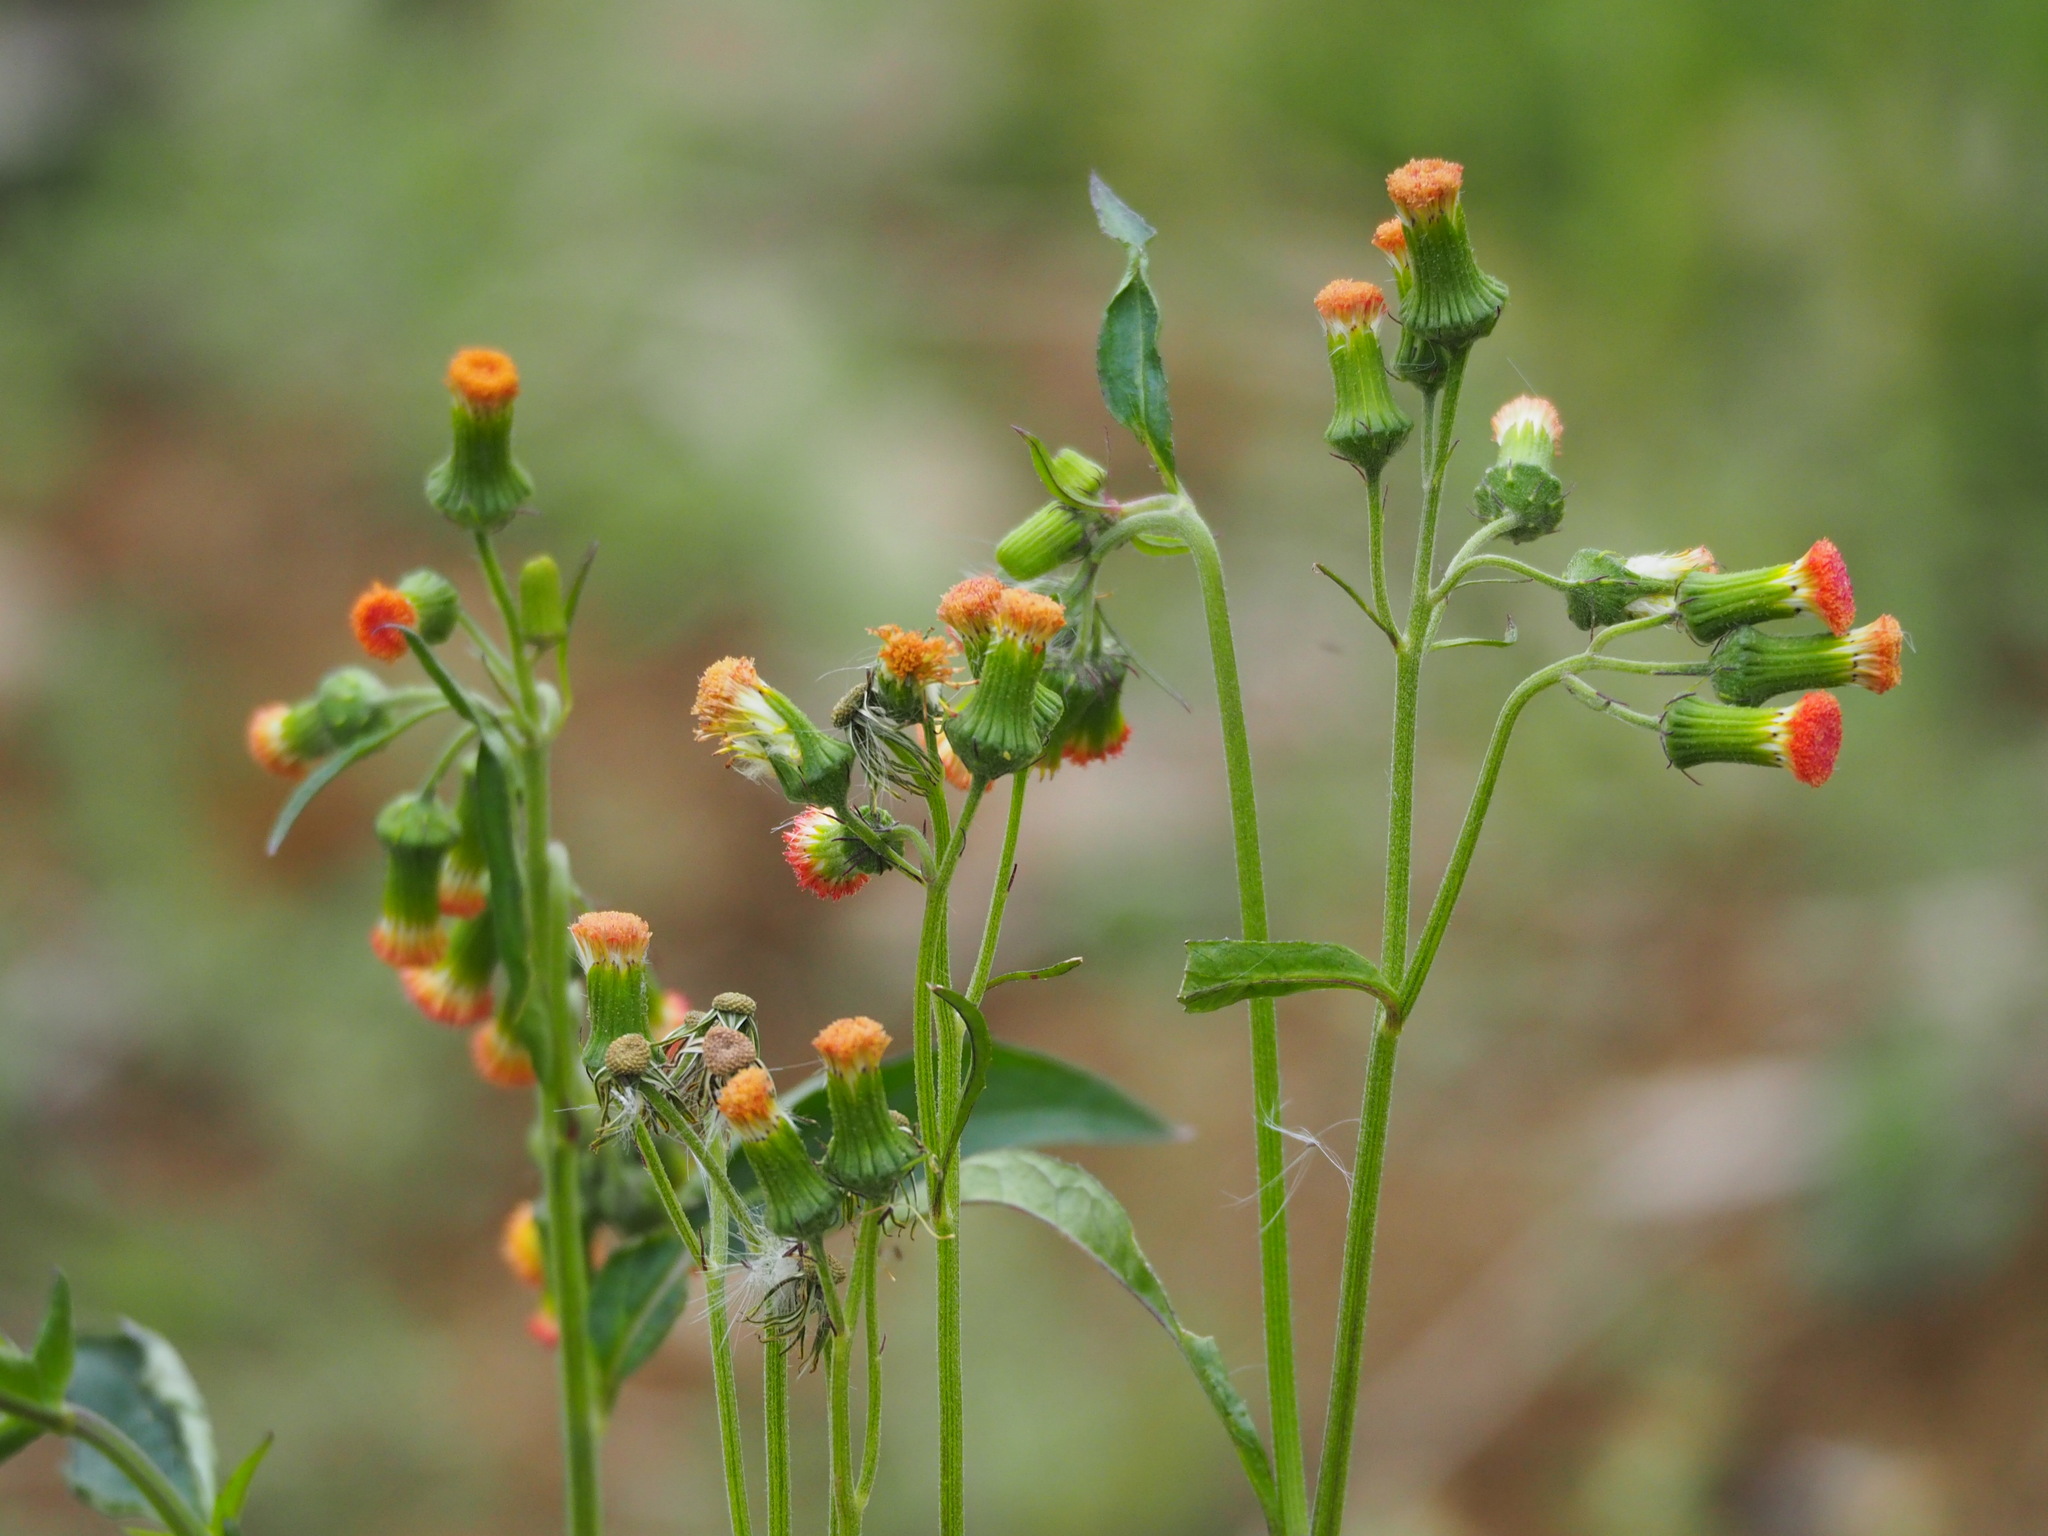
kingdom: Plantae
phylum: Tracheophyta
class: Magnoliopsida
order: Asterales
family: Asteraceae
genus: Crassocephalum
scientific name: Crassocephalum crepidioides
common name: Redflower ragleaf
